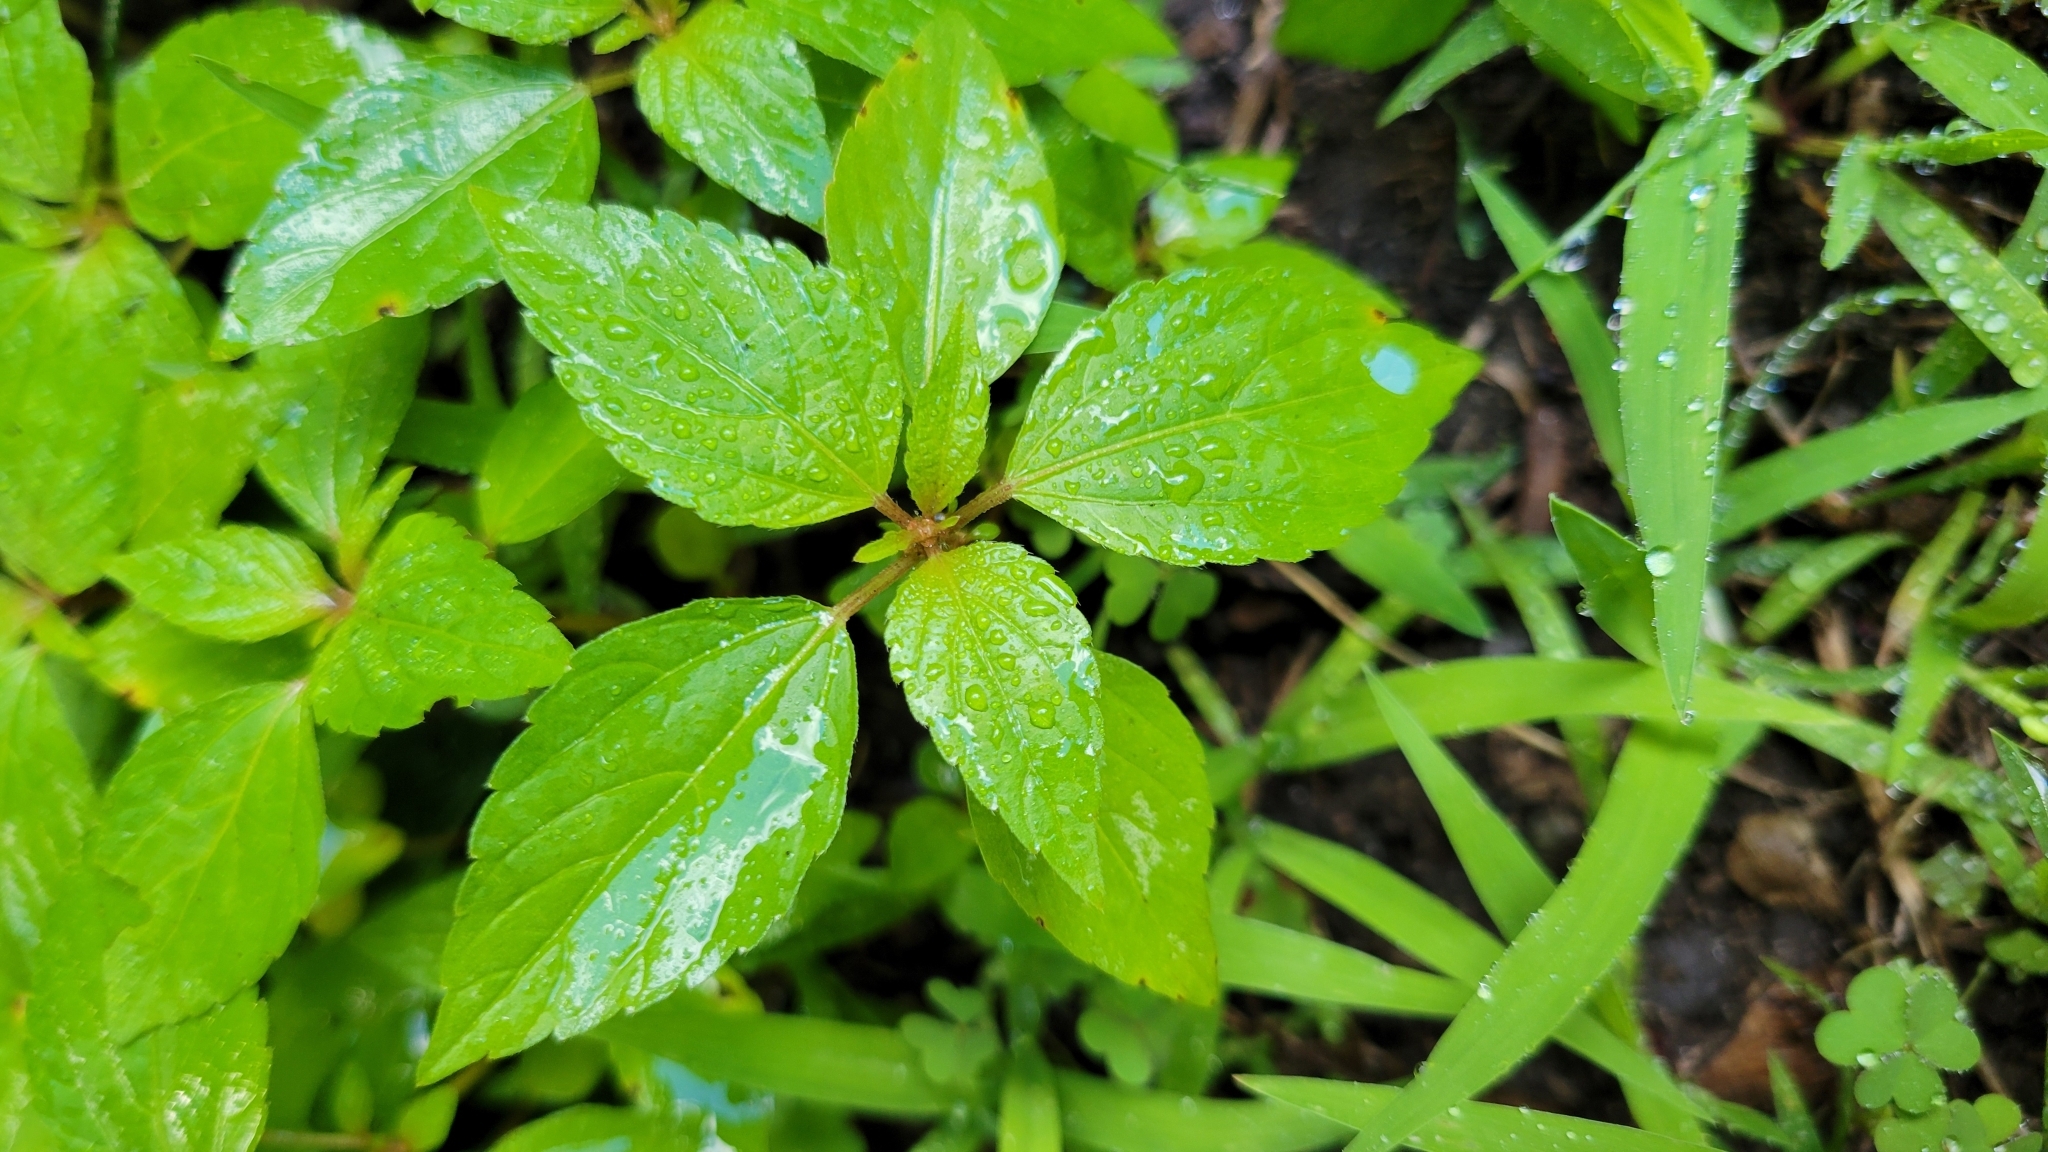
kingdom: Plantae
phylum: Tracheophyta
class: Magnoliopsida
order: Malpighiales
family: Euphorbiaceae
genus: Acalypha
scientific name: Acalypha rhomboidea
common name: Rhombic copperleaf
